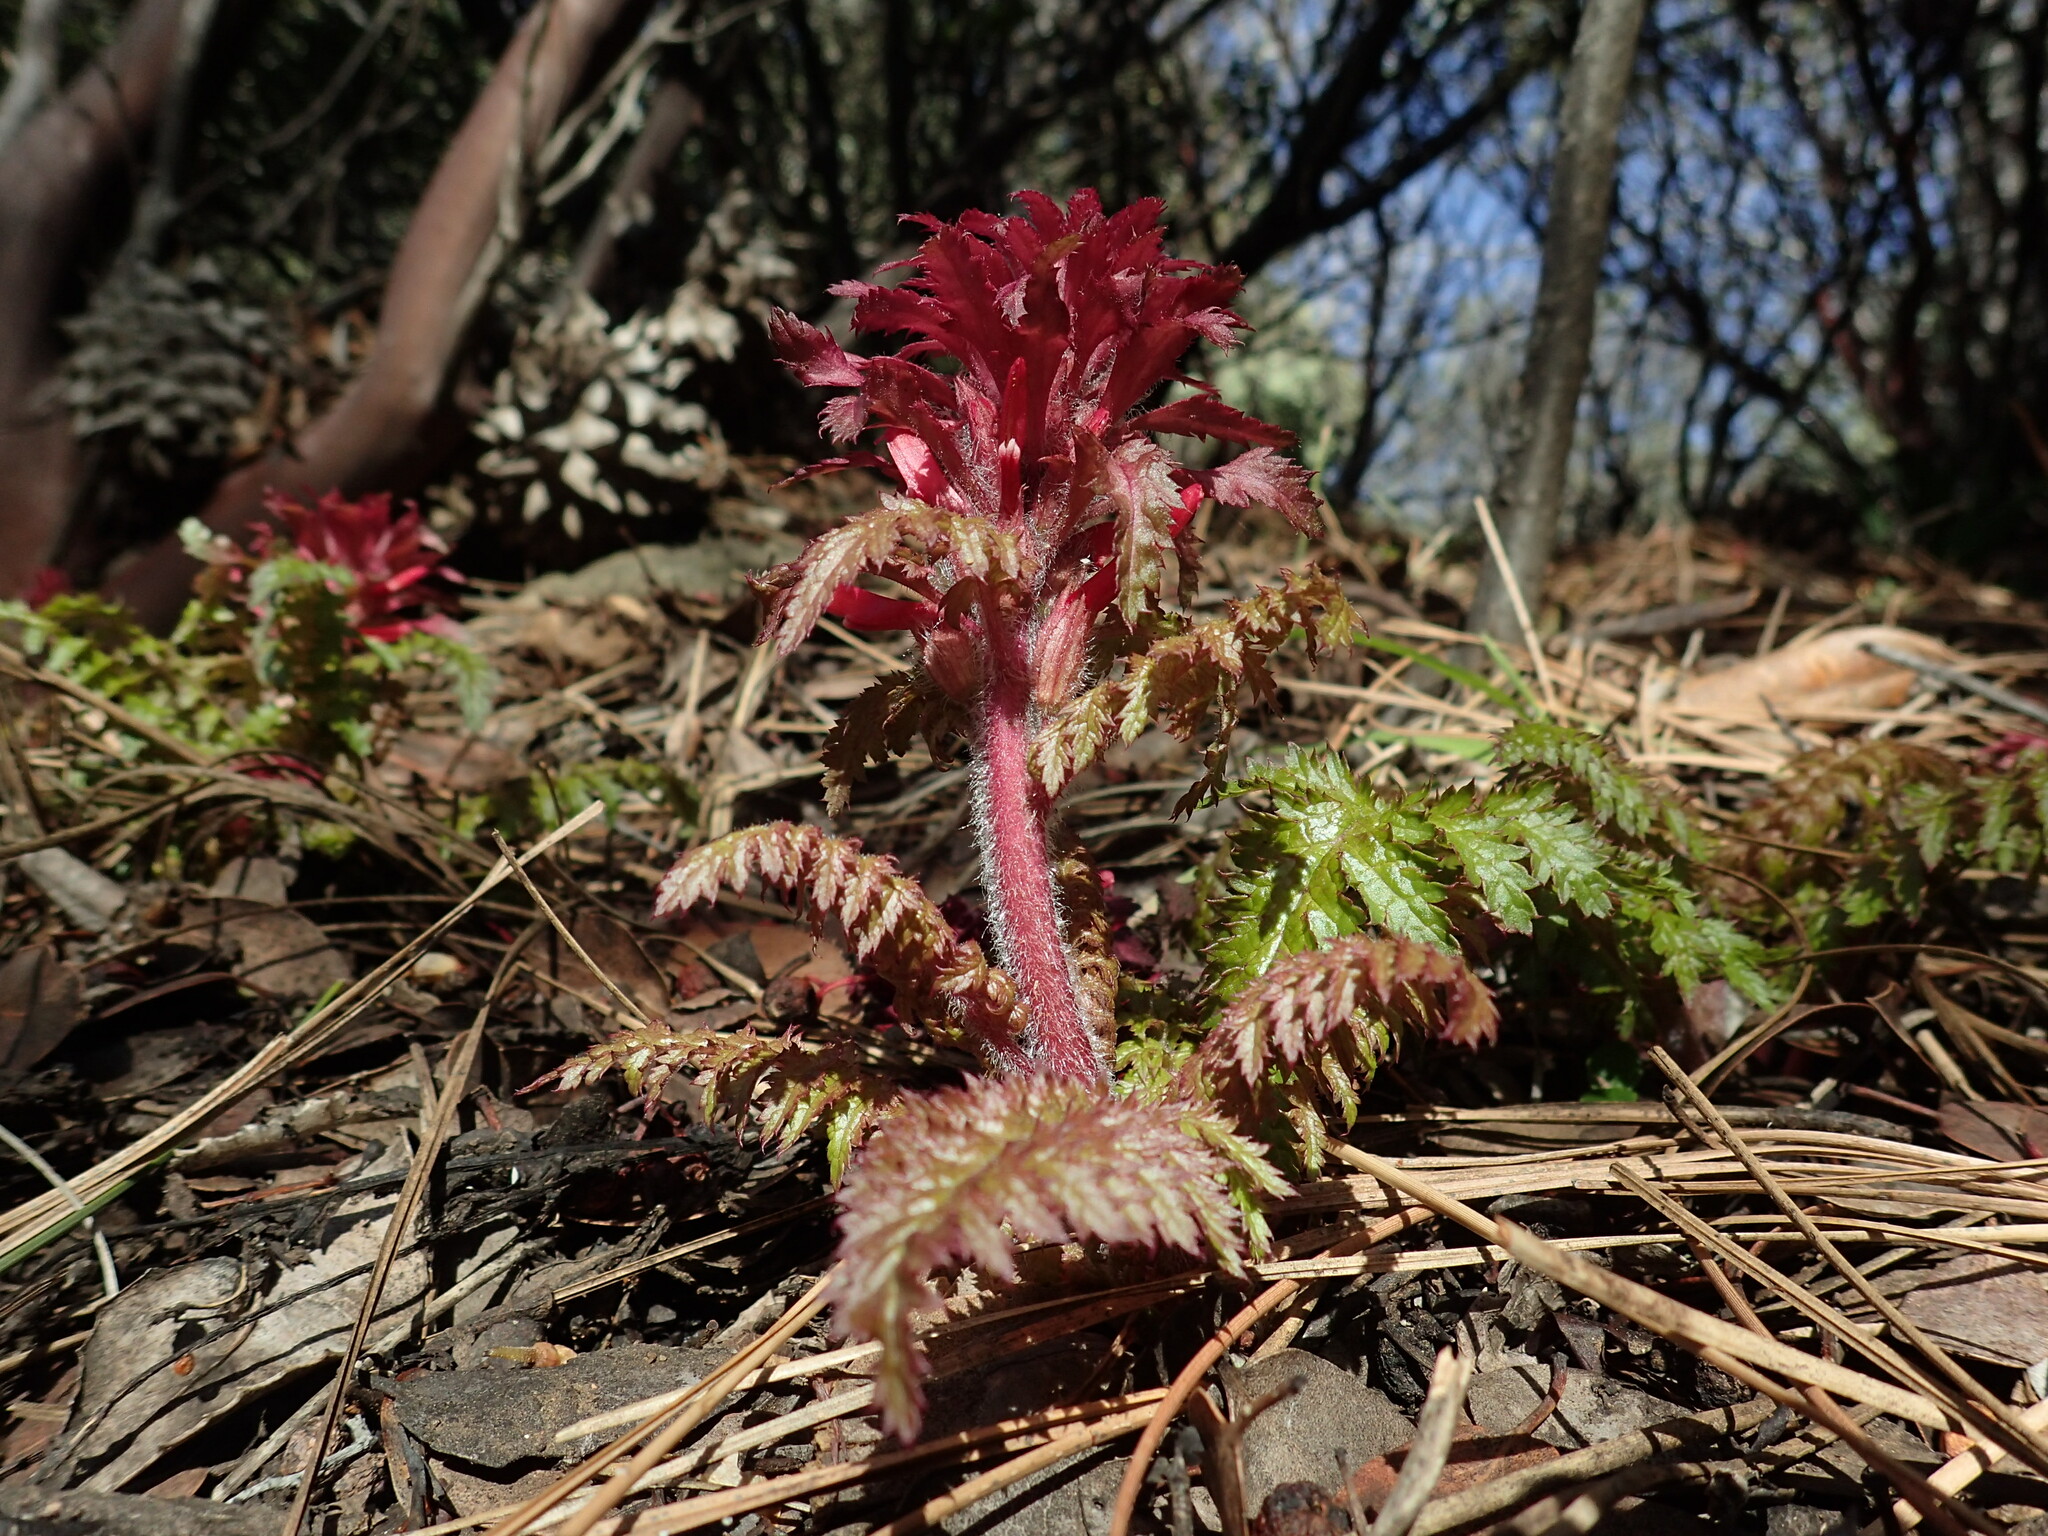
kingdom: Plantae
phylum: Tracheophyta
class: Magnoliopsida
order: Lamiales
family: Orobanchaceae
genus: Pedicularis
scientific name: Pedicularis densiflora
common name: Indian warrior
